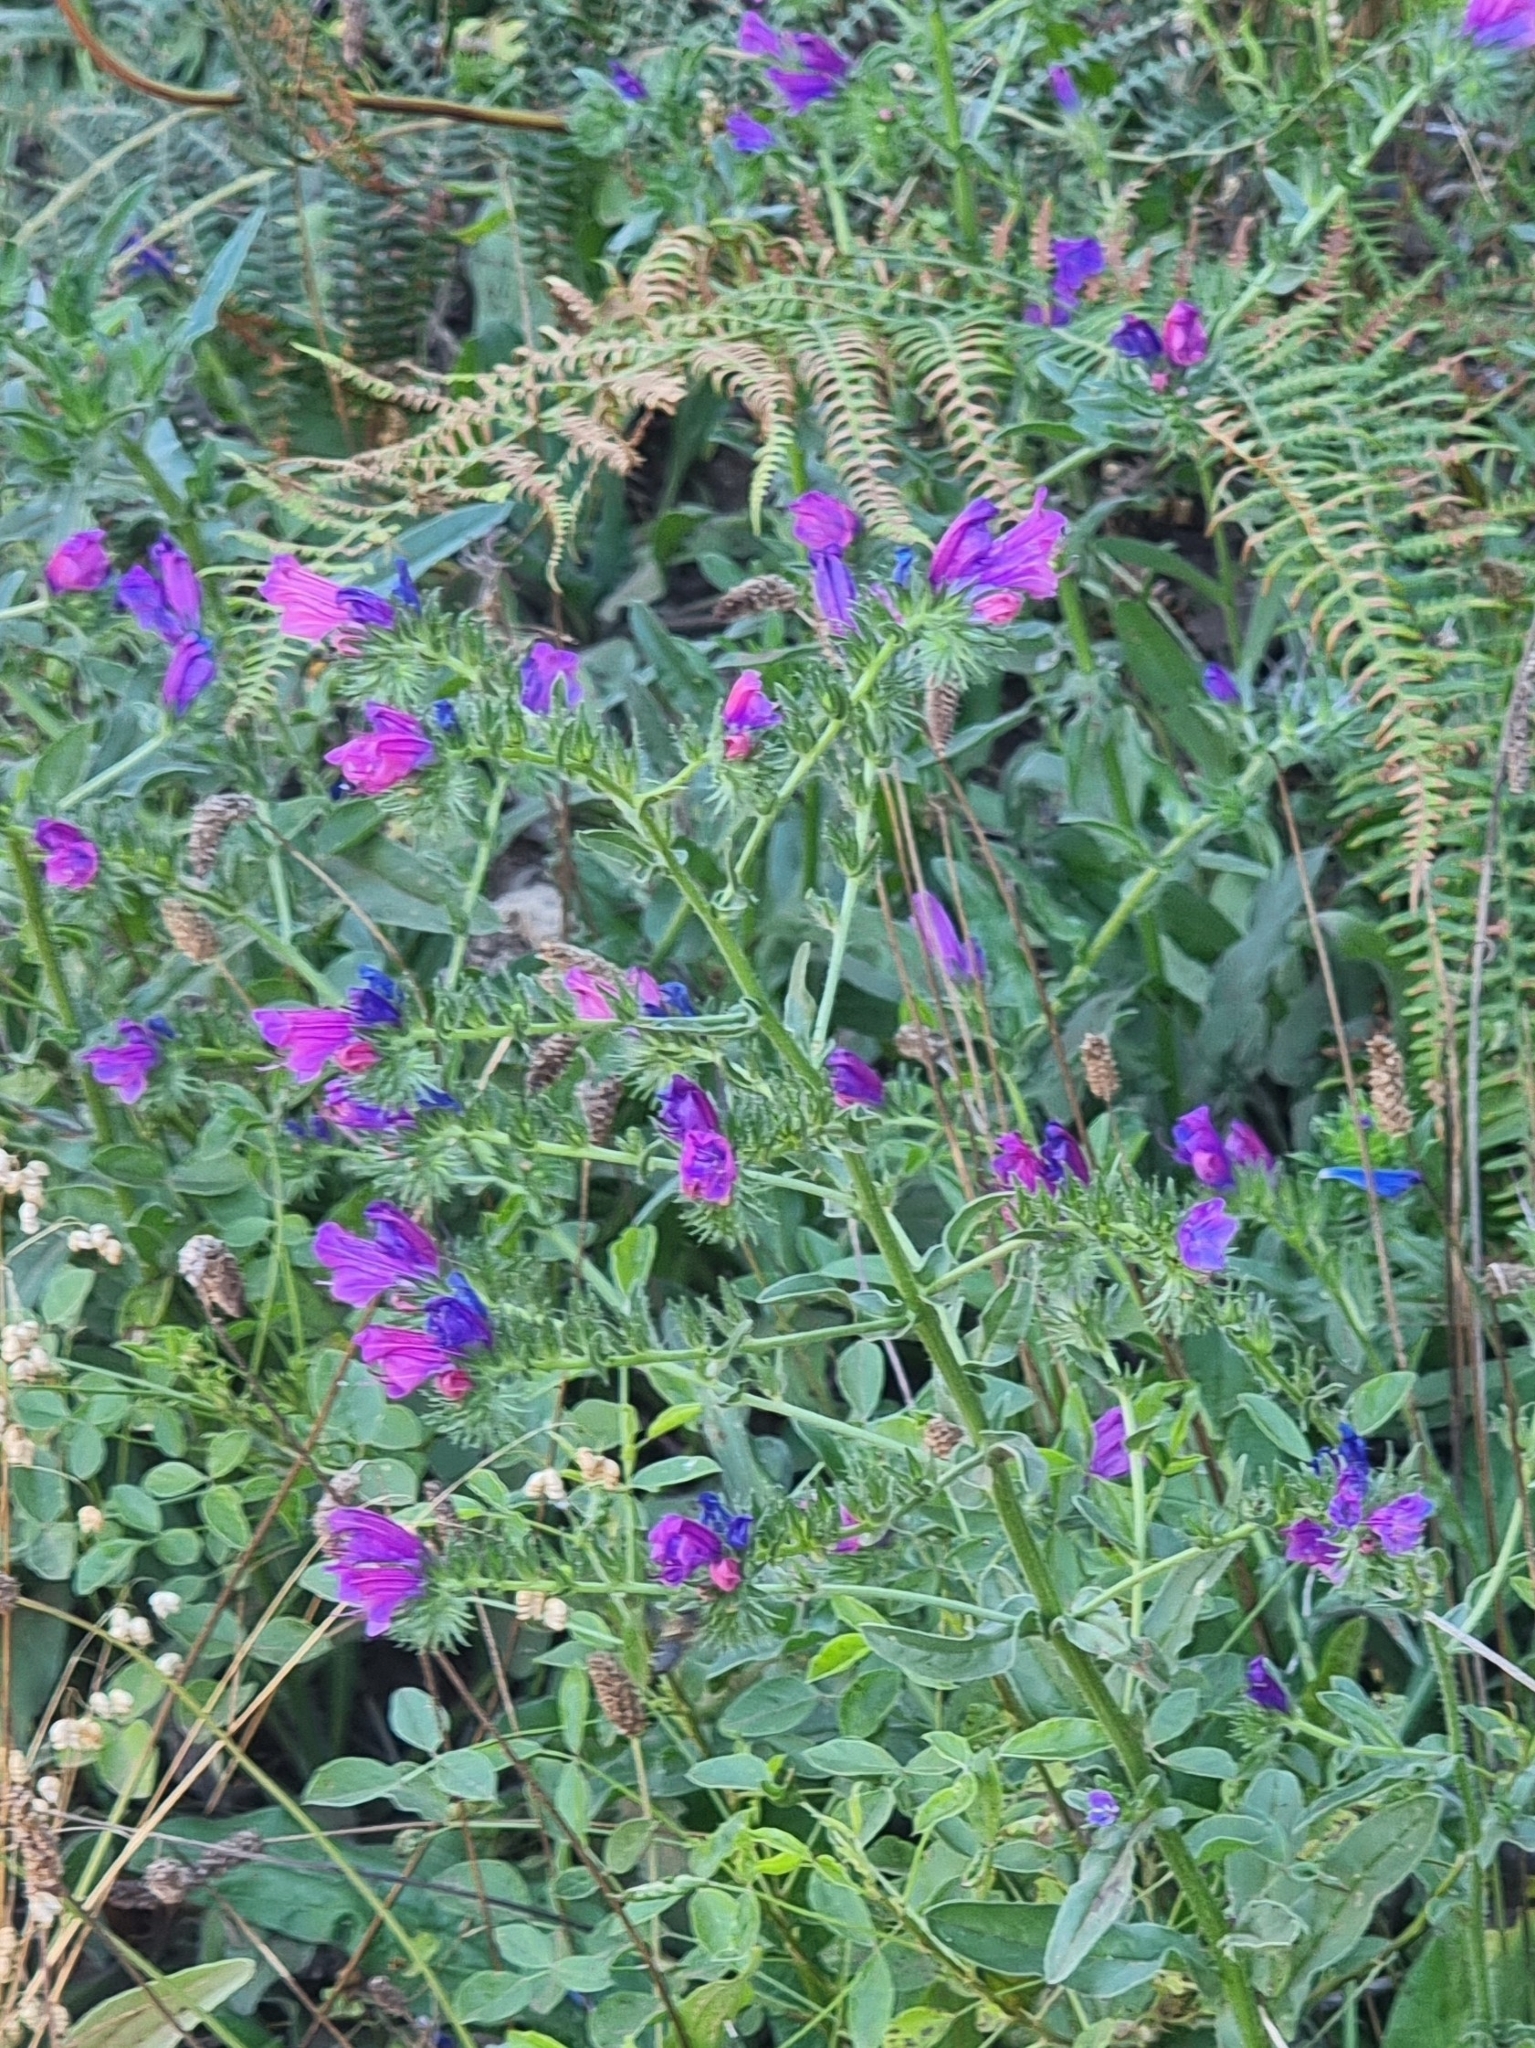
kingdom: Plantae
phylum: Tracheophyta
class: Magnoliopsida
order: Boraginales
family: Boraginaceae
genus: Echium
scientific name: Echium plantagineum
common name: Purple viper's-bugloss
